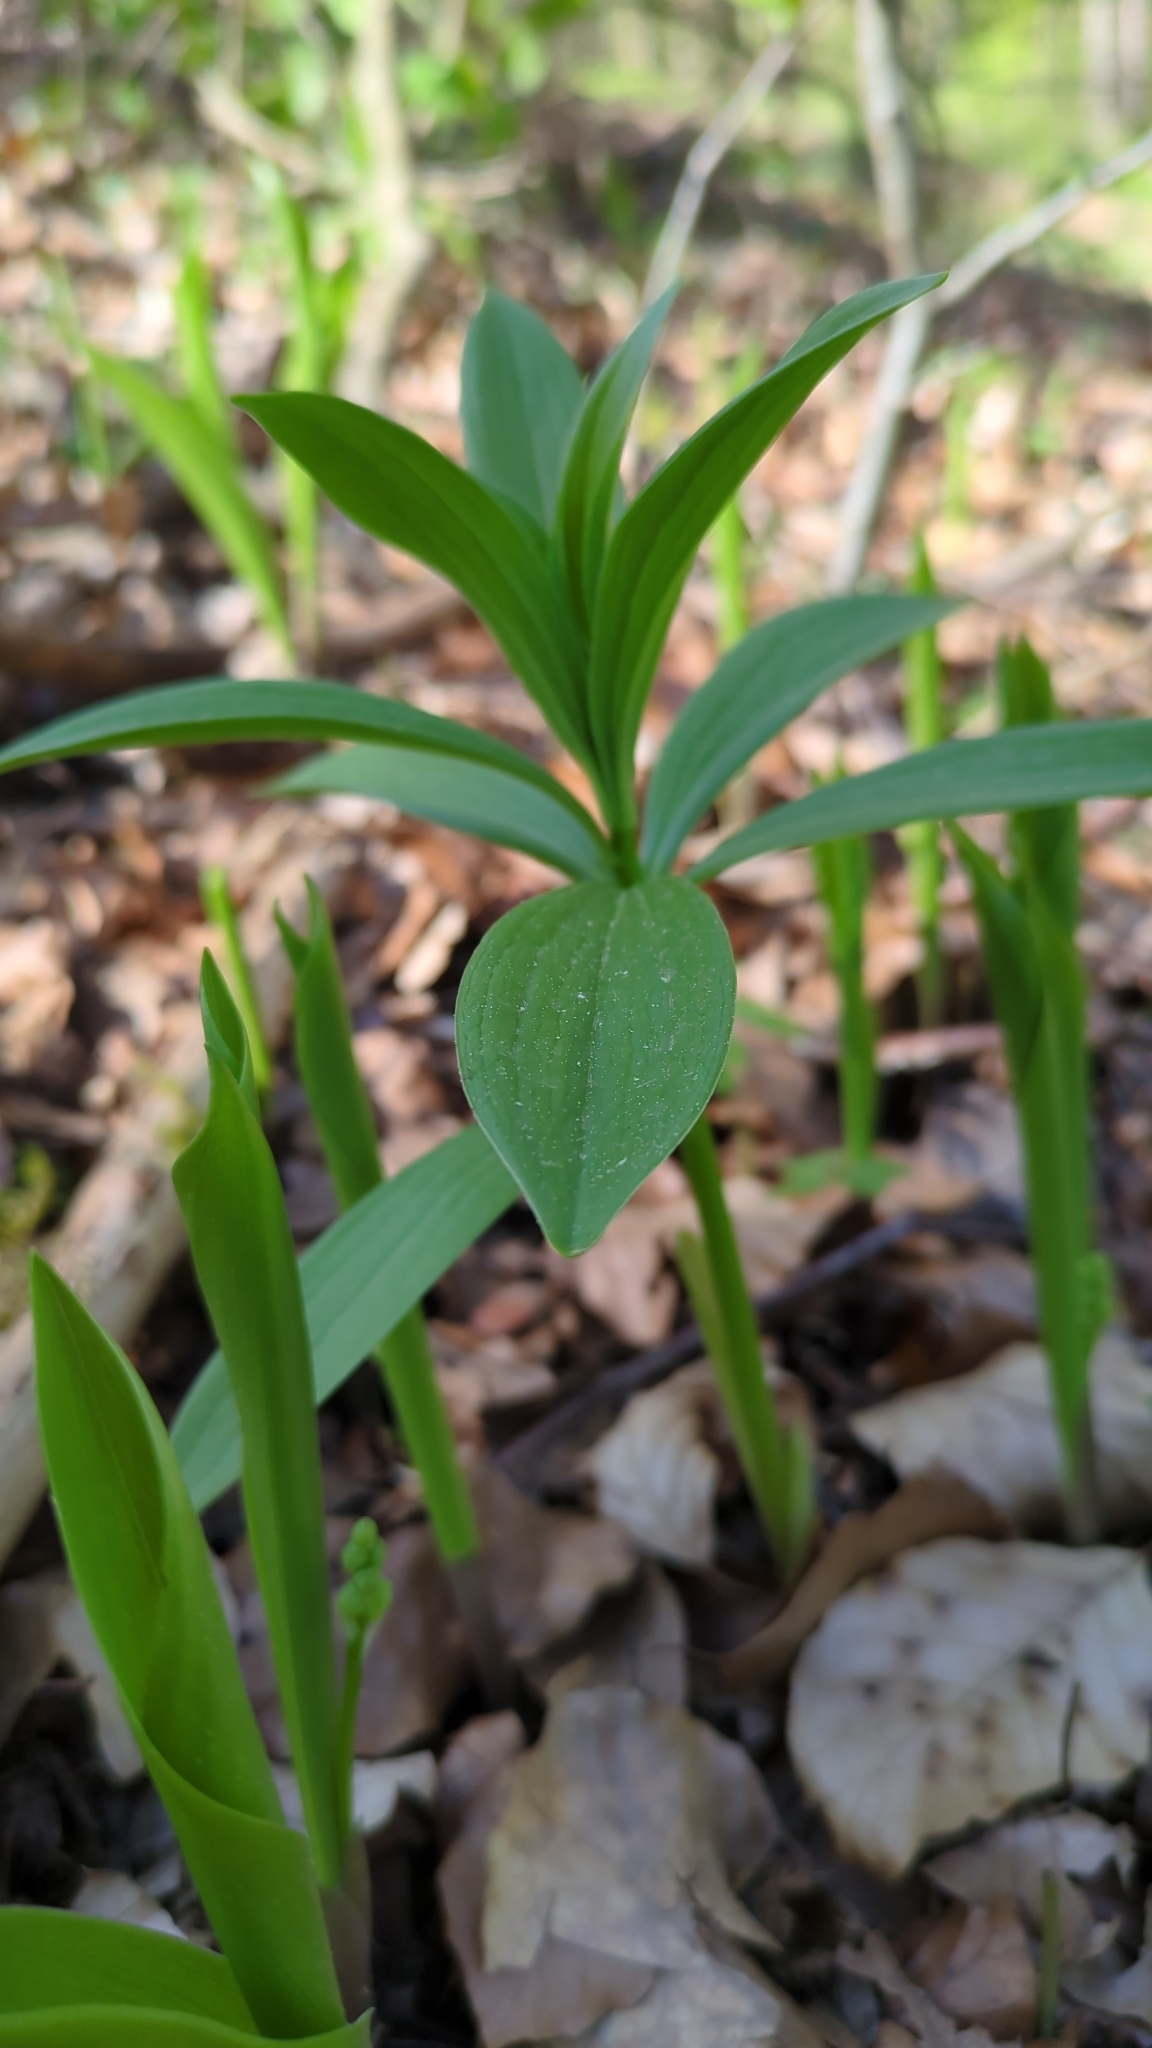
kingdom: Plantae
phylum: Tracheophyta
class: Liliopsida
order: Liliales
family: Liliaceae
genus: Lilium
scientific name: Lilium martagon
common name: Martagon lily
